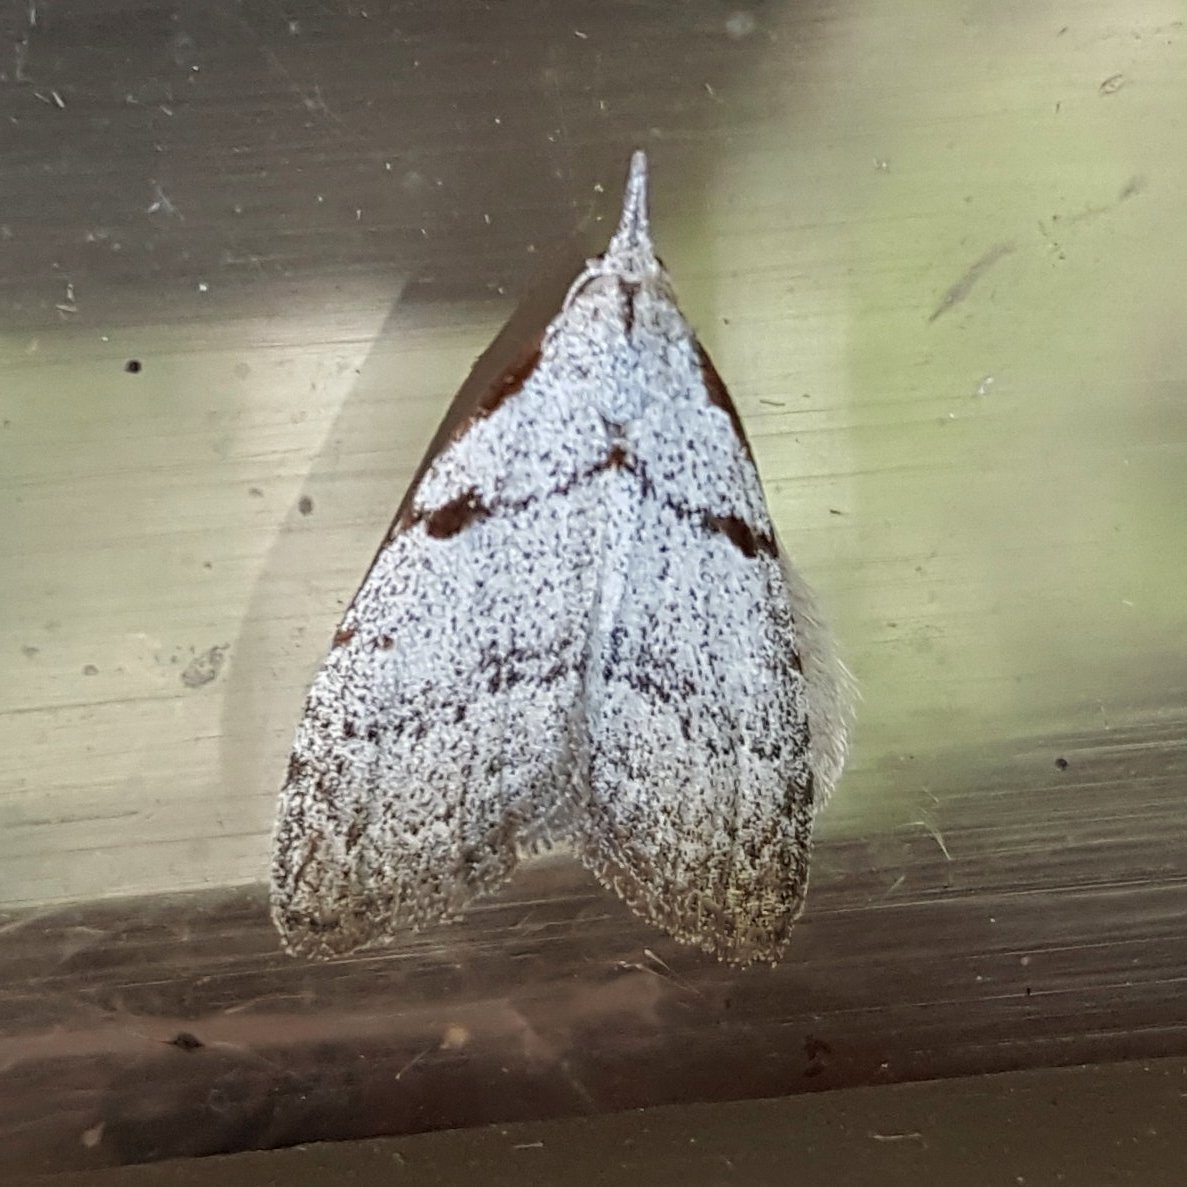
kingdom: Animalia
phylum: Arthropoda
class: Insecta
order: Lepidoptera
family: Nolidae
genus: Nola
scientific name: Nola minna
